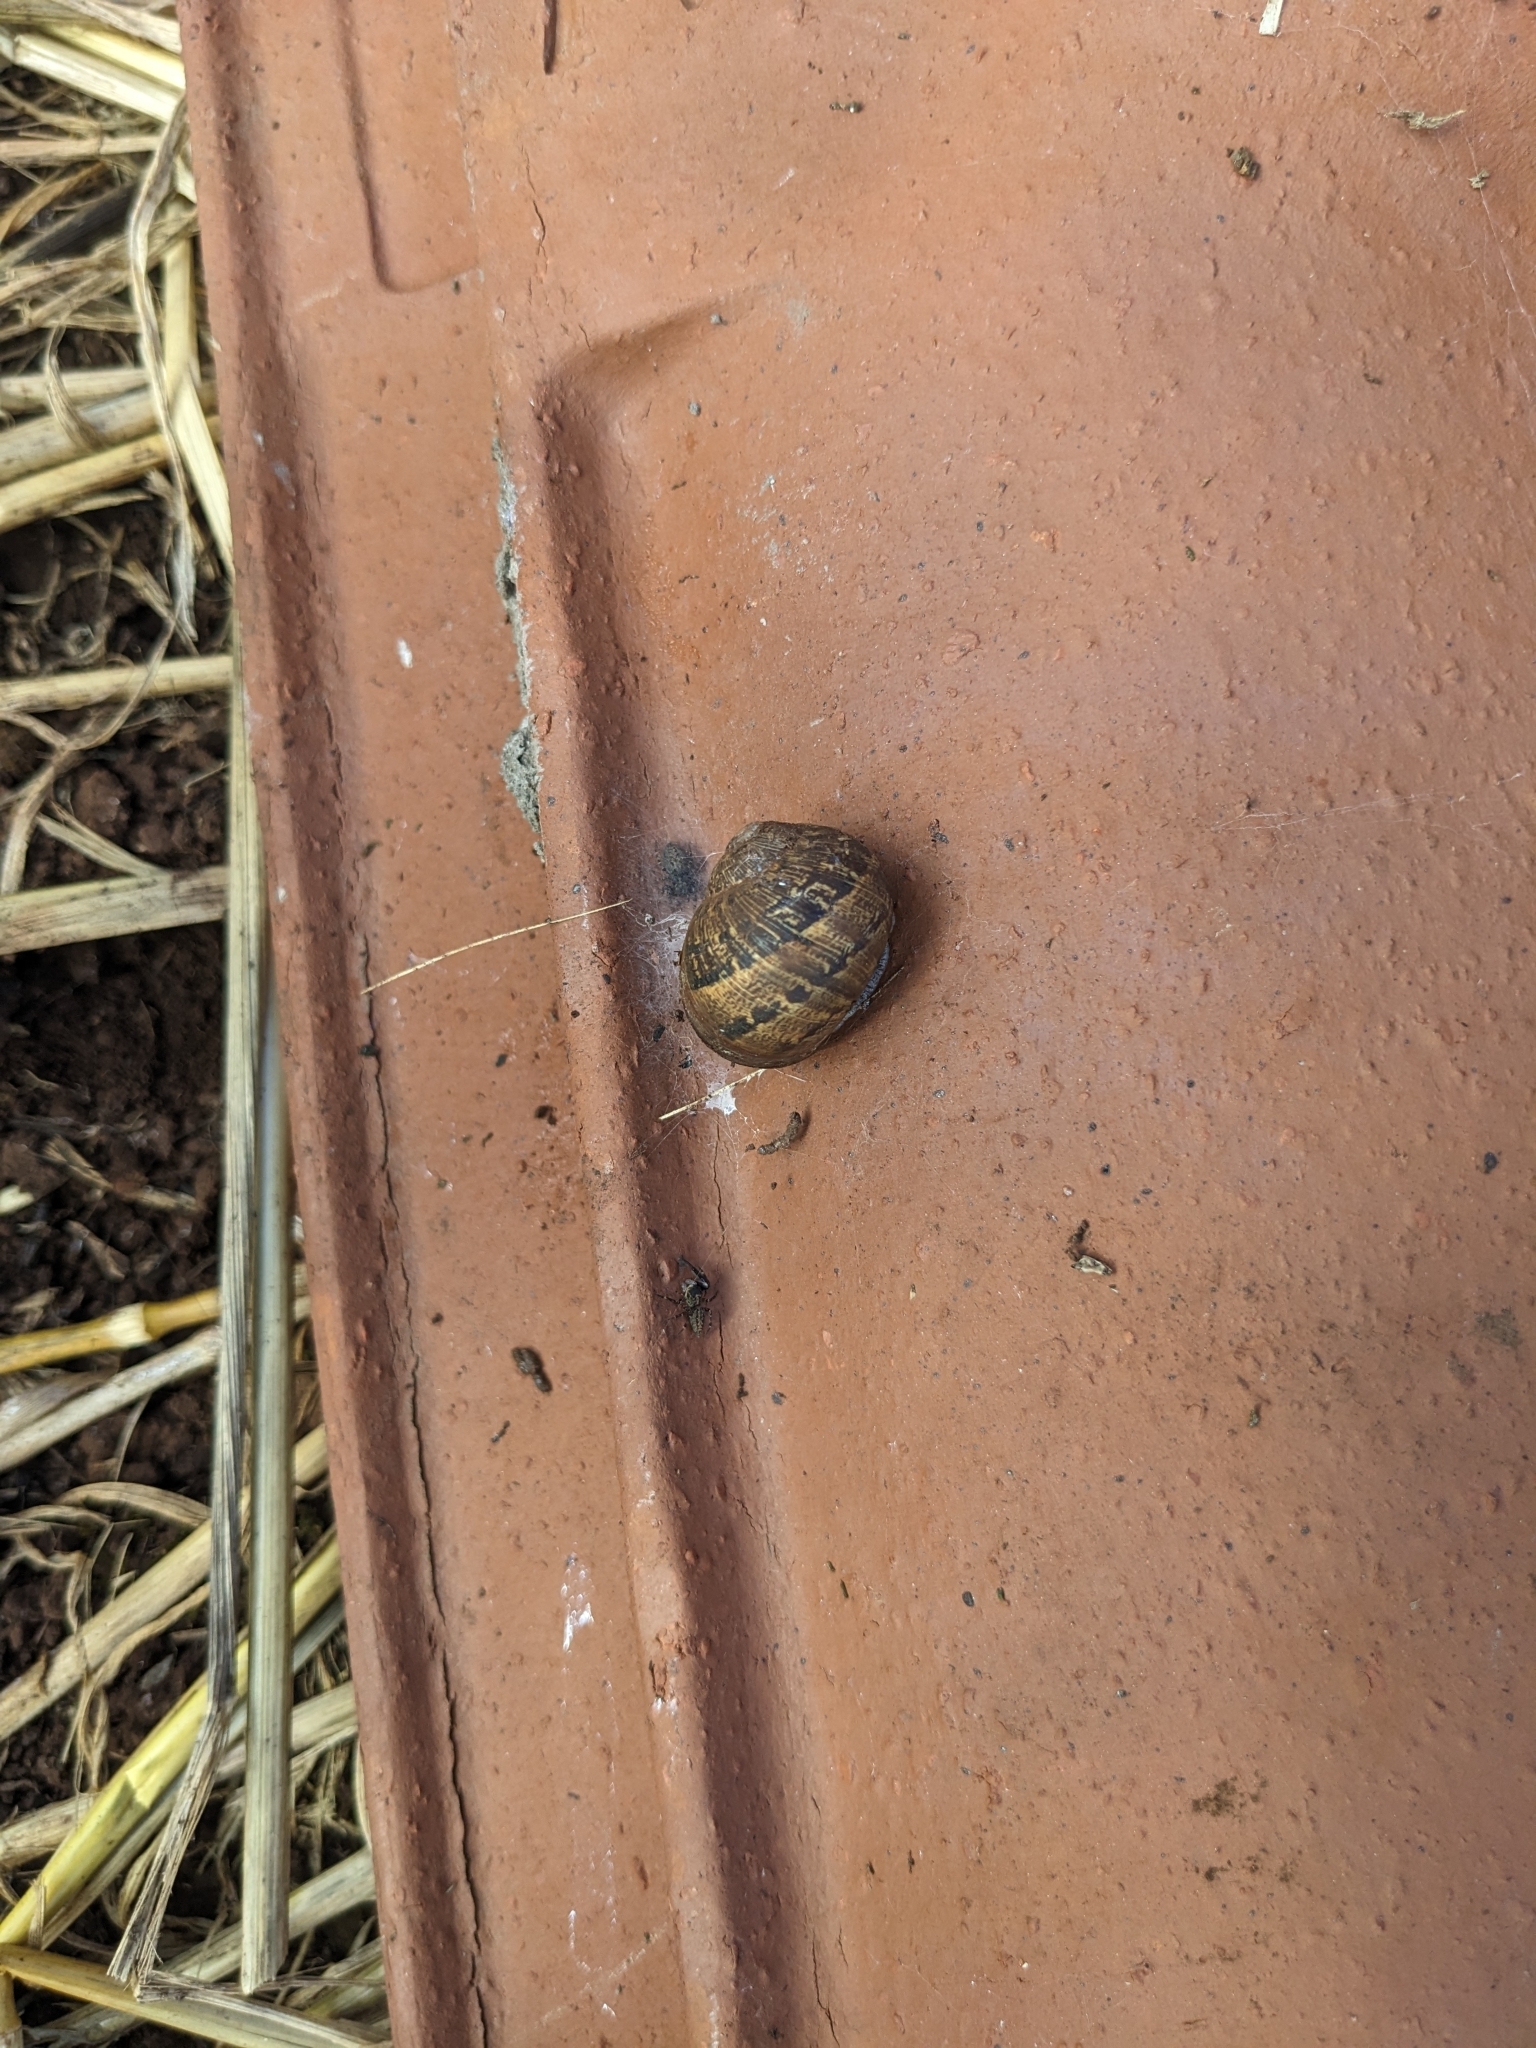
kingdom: Animalia
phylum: Mollusca
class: Gastropoda
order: Stylommatophora
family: Helicidae
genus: Cornu
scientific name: Cornu aspersum
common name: Brown garden snail
